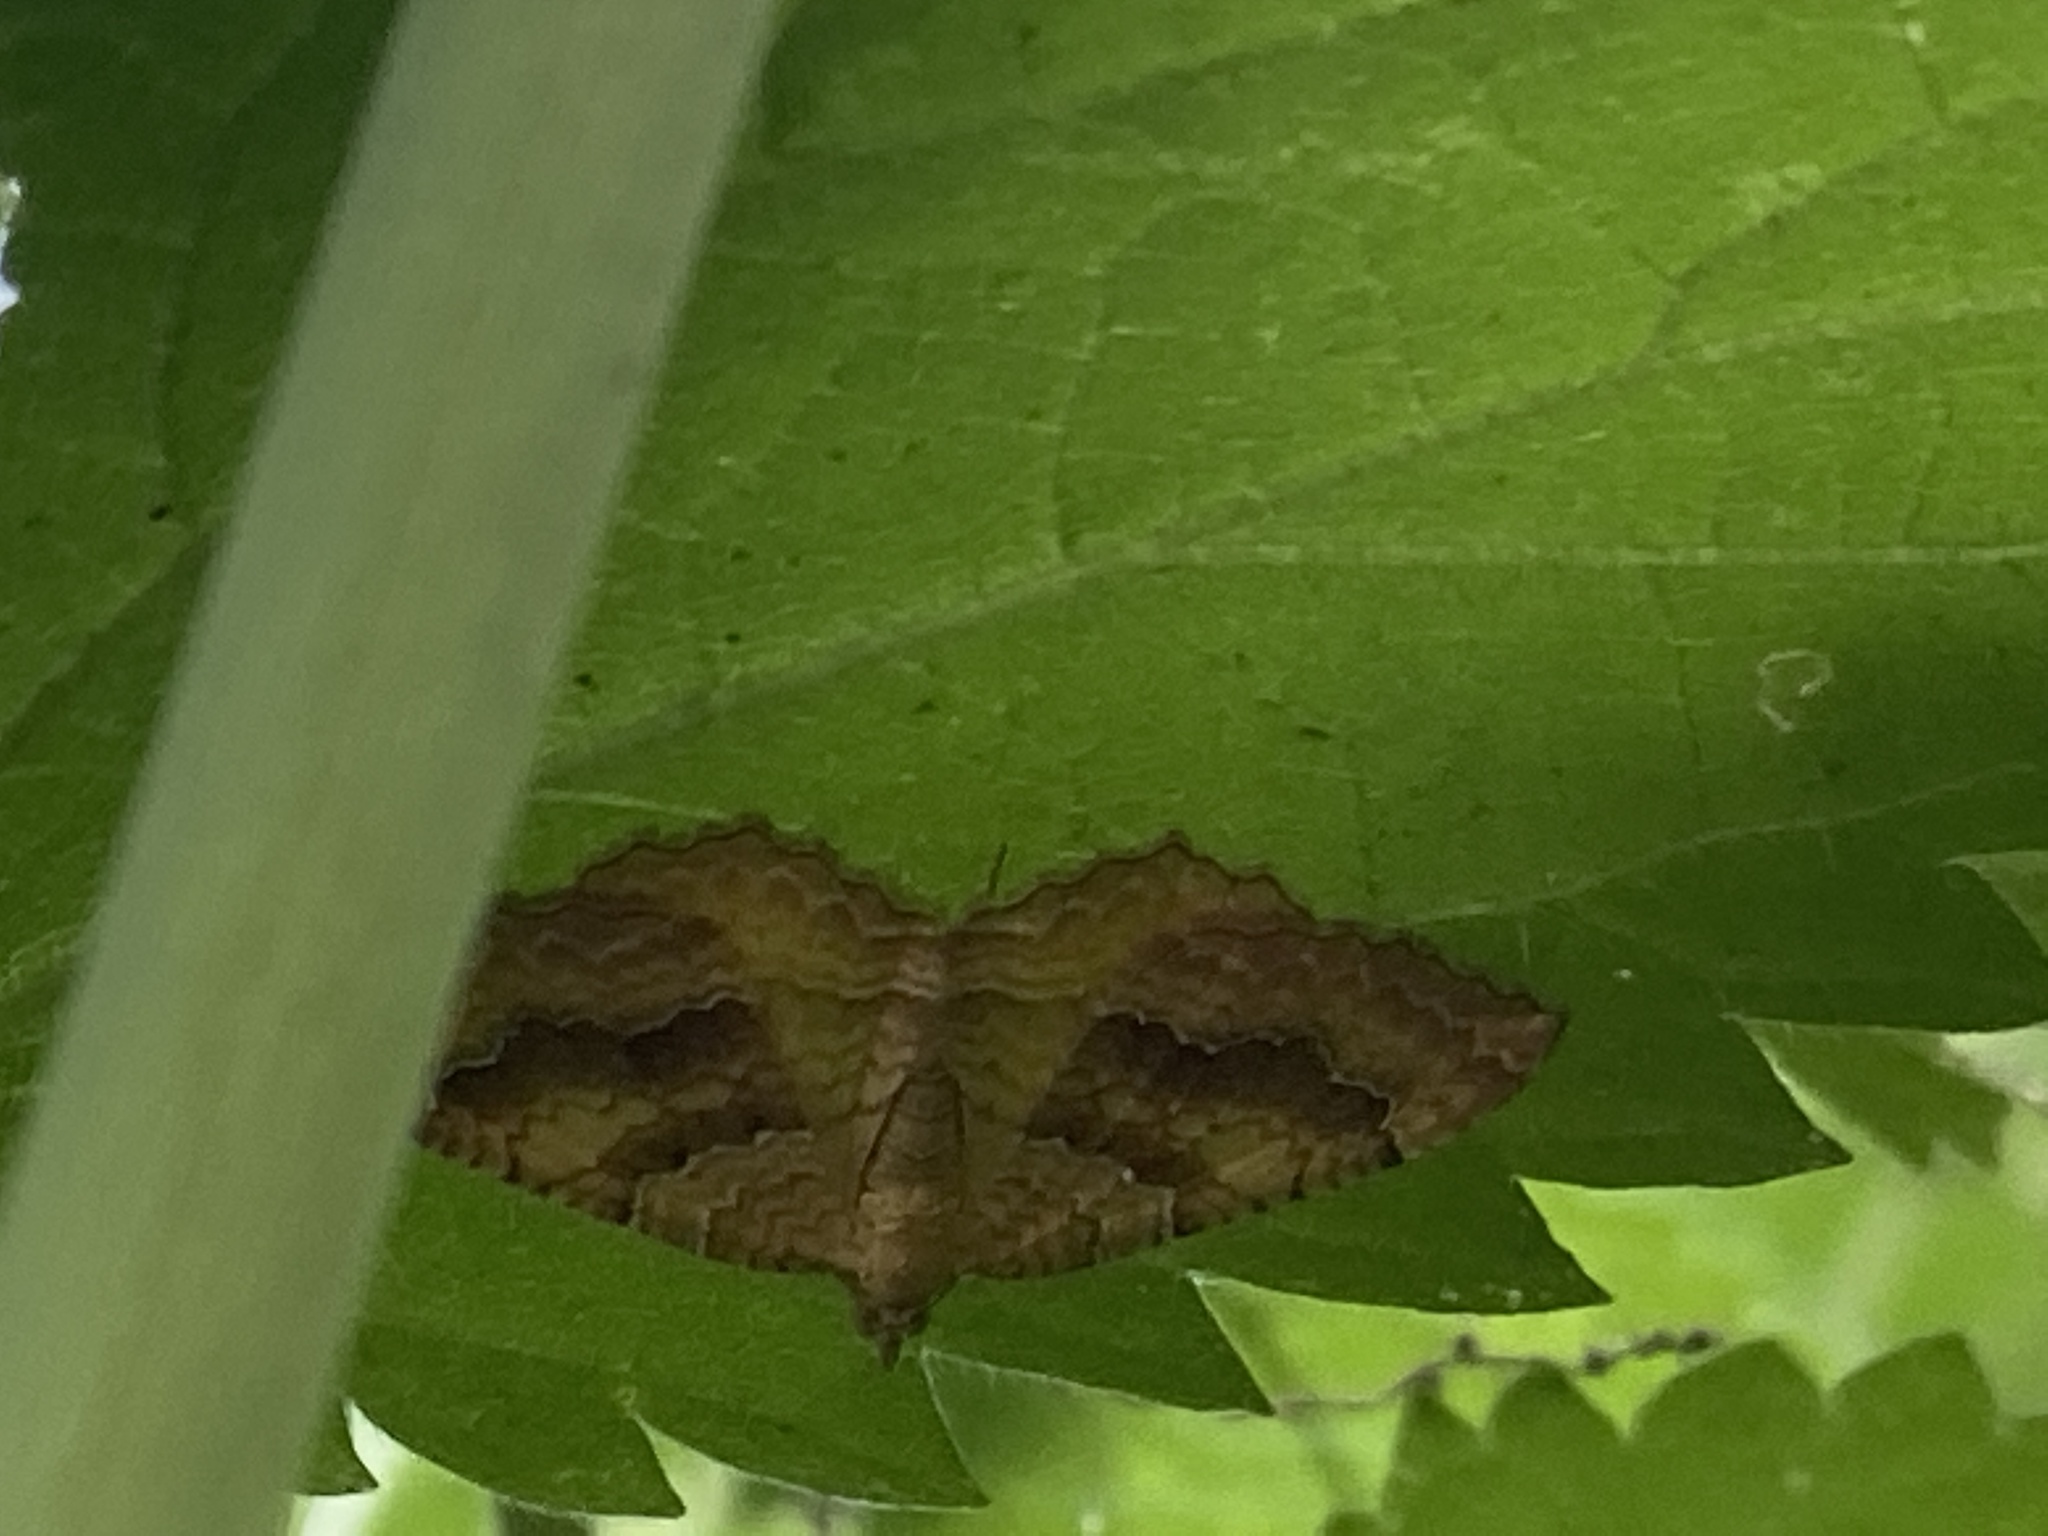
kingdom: Animalia
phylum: Arthropoda
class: Insecta
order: Lepidoptera
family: Geometridae
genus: Camptogramma
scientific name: Camptogramma bilineata
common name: Yellow shell
